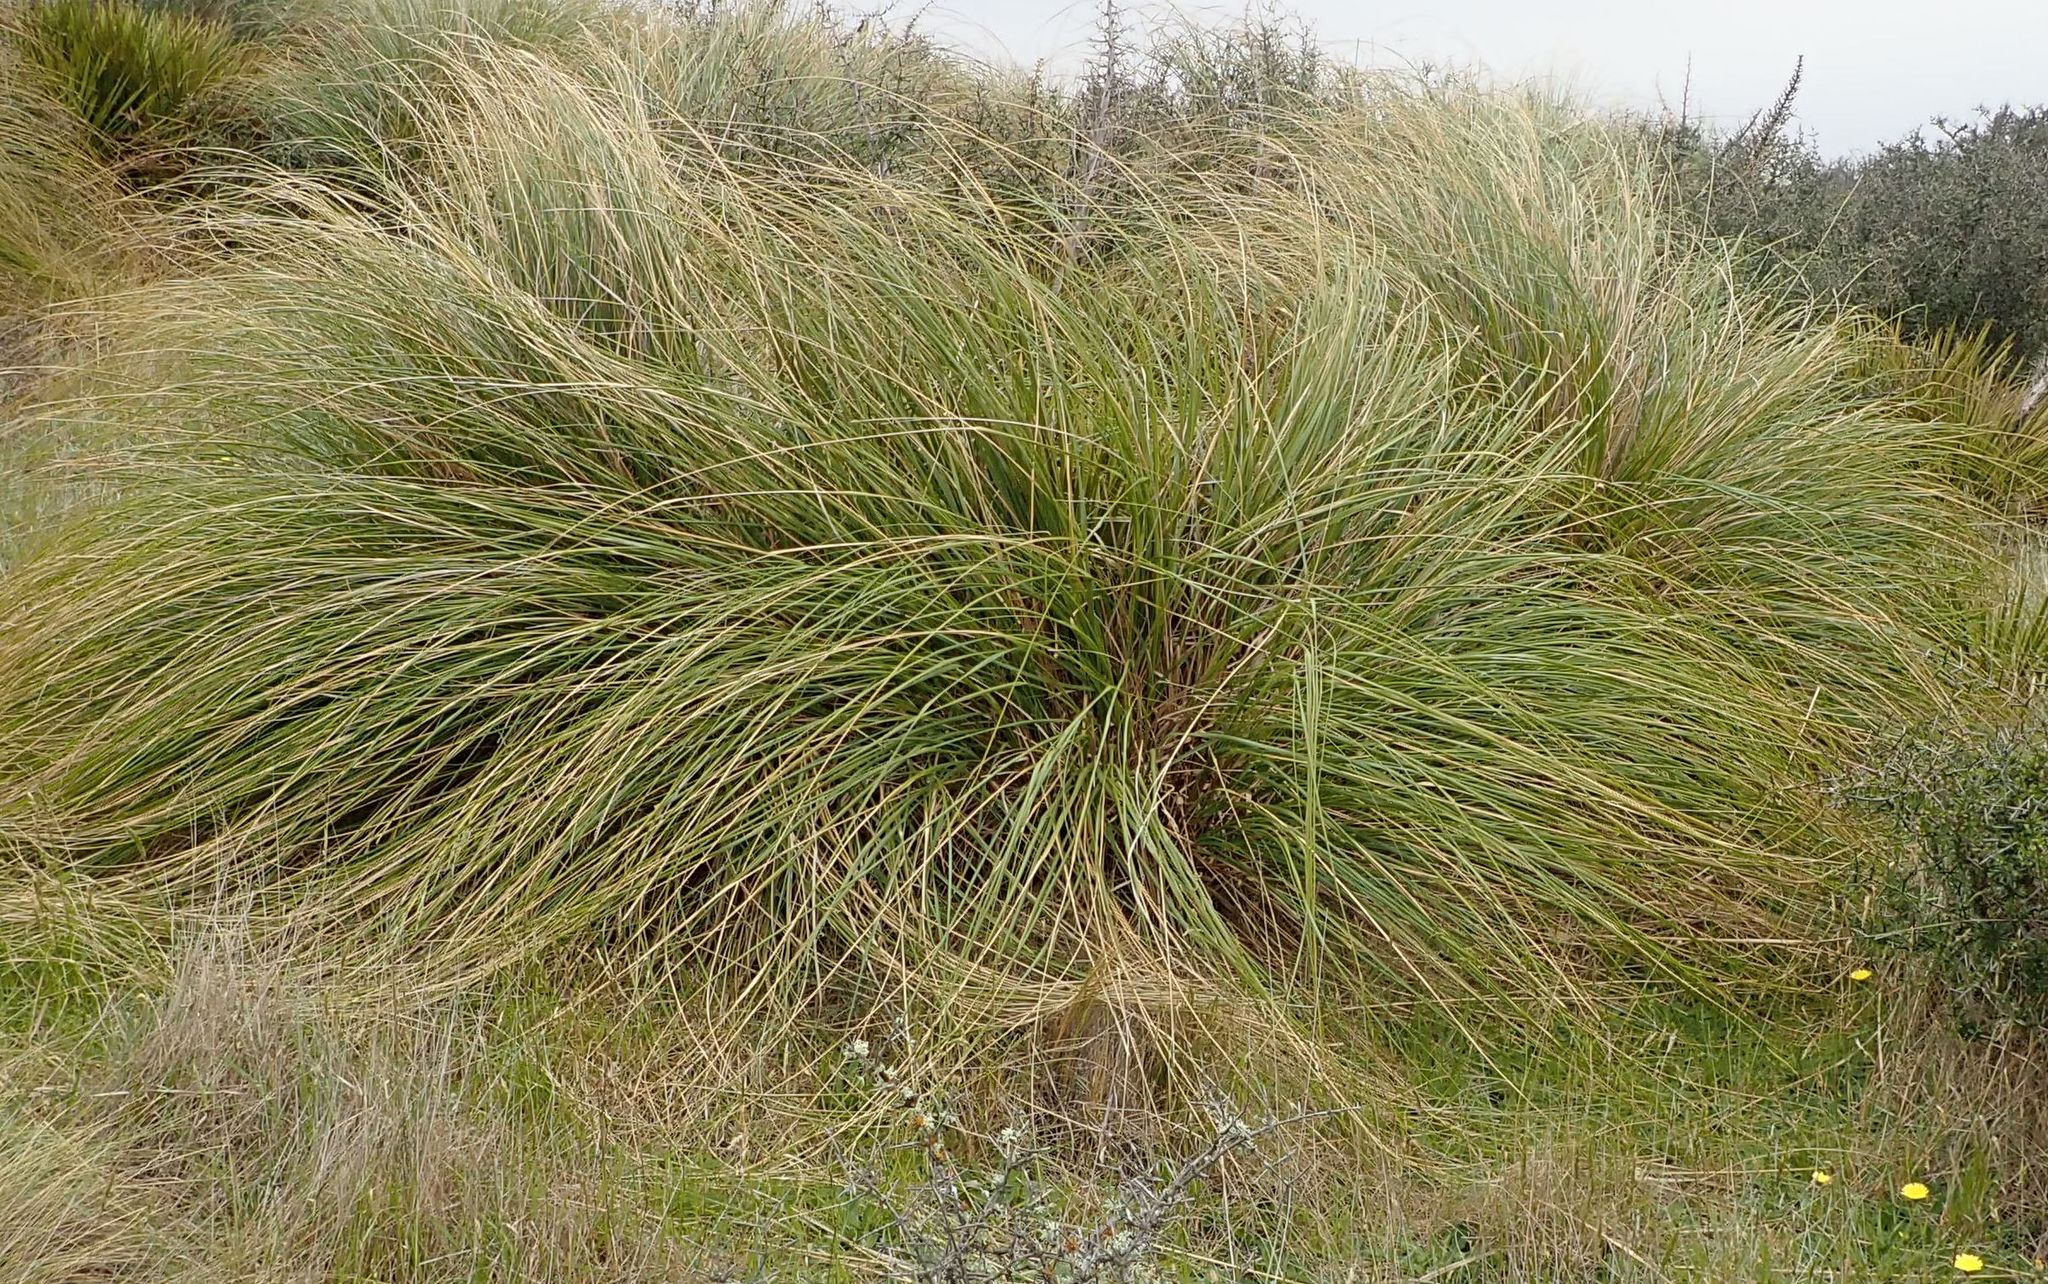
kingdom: Plantae
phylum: Tracheophyta
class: Liliopsida
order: Poales
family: Poaceae
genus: Chionochloa
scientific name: Chionochloa rigida
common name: Narrow leaved snow tussock
